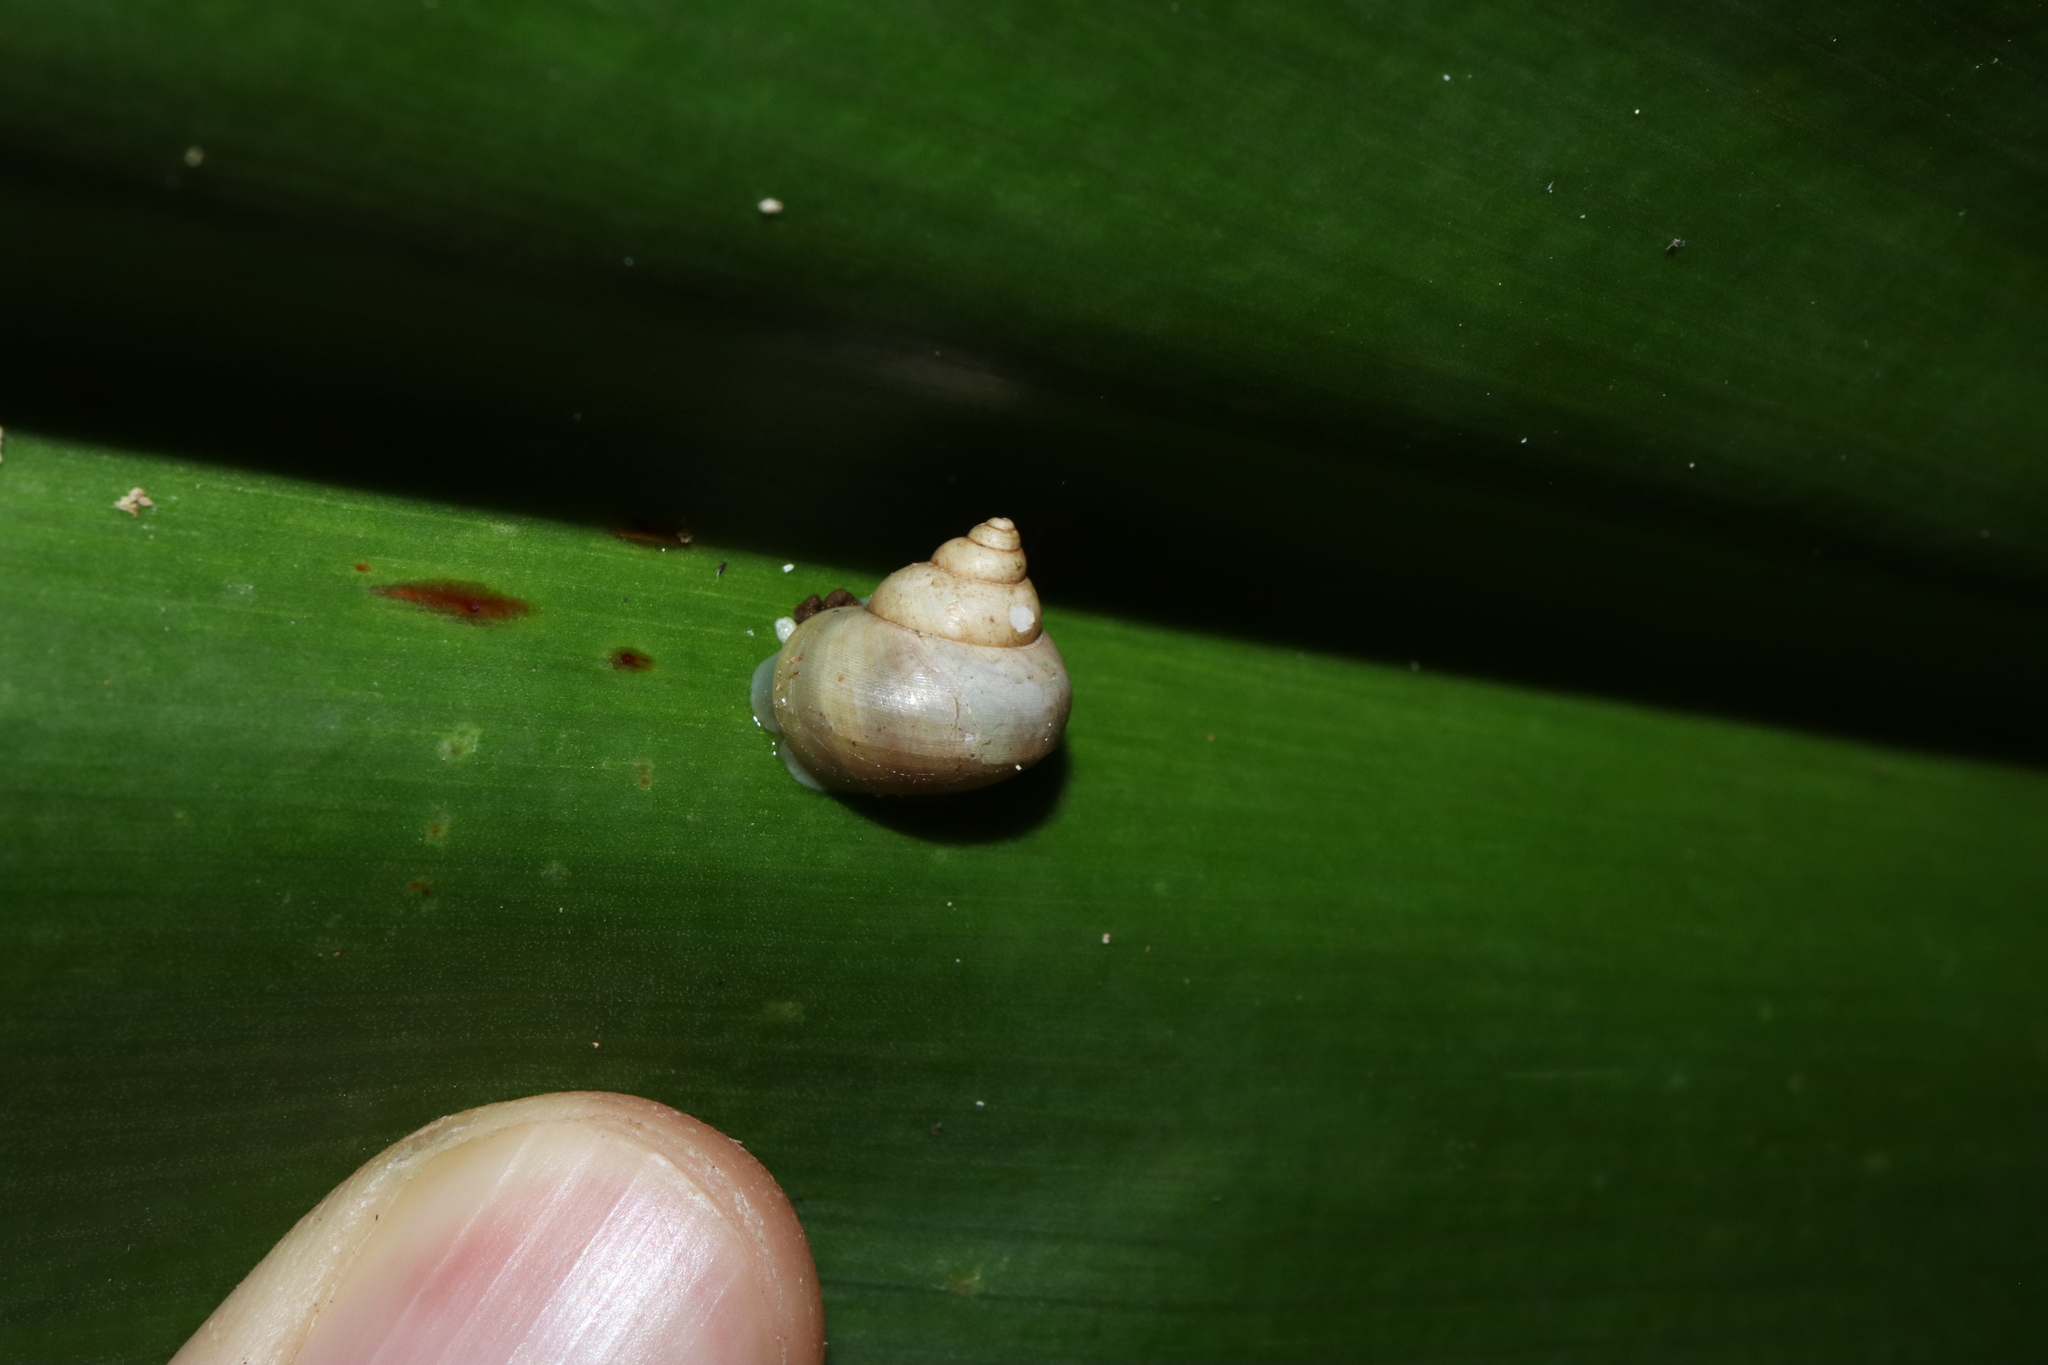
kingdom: Animalia
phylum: Mollusca
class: Gastropoda
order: Architaenioglossa
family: Cyclophoridae
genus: Leptopoma
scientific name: Leptopoma perlucidum
